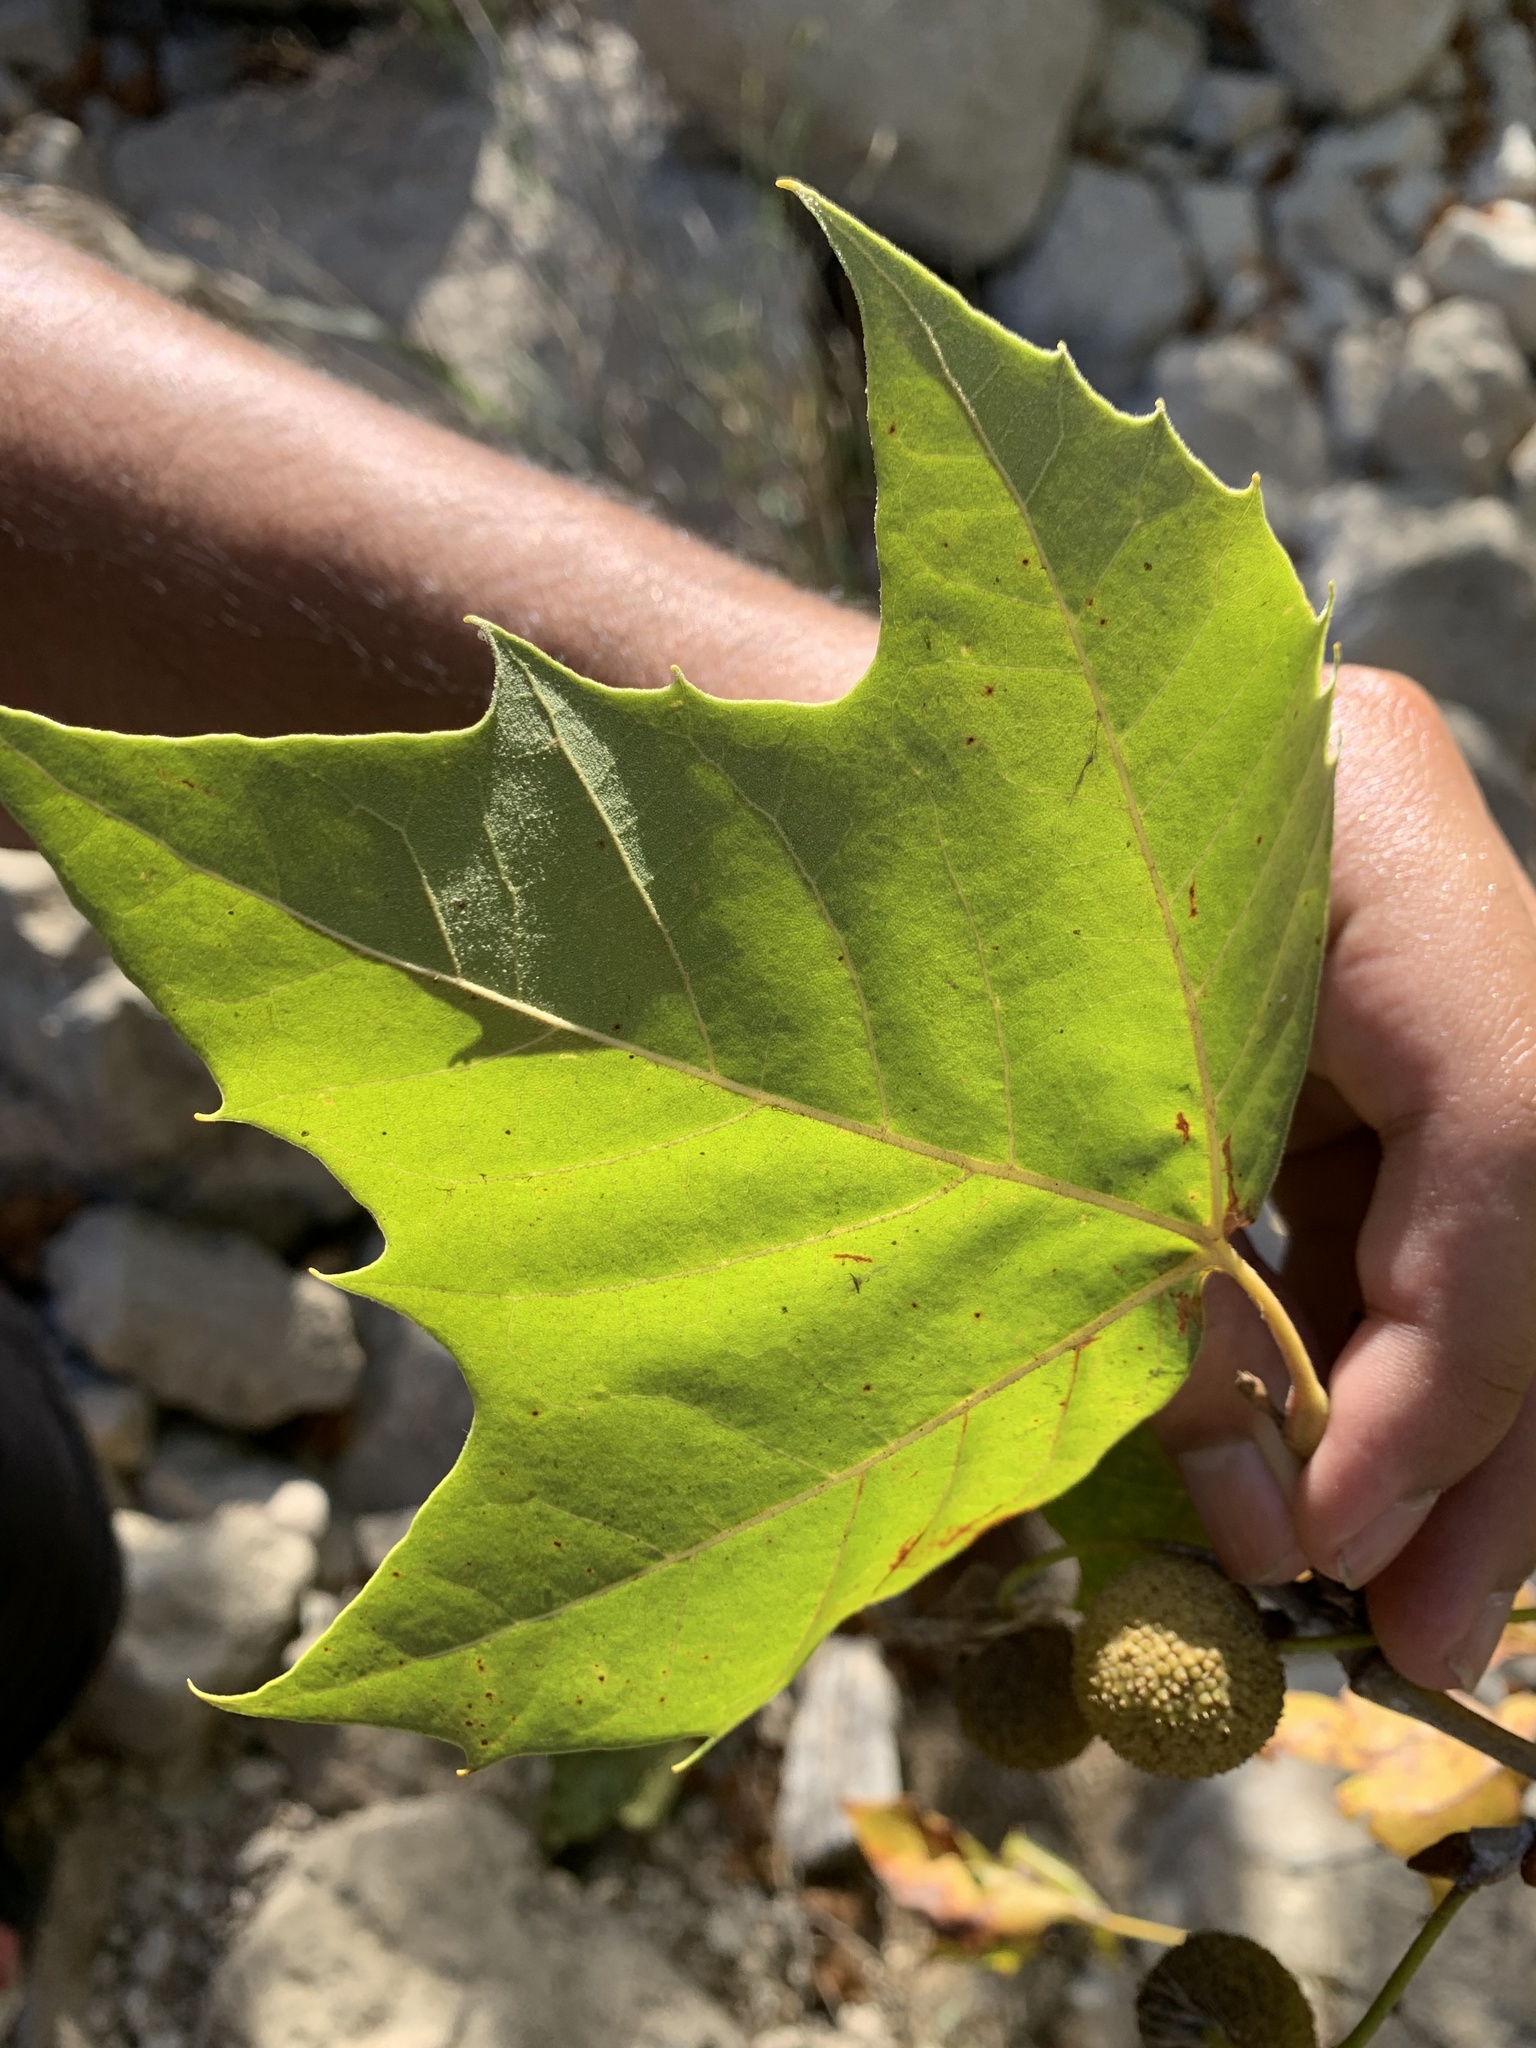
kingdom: Plantae
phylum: Tracheophyta
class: Magnoliopsida
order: Proteales
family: Platanaceae
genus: Platanus
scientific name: Platanus occidentalis
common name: American sycamore
